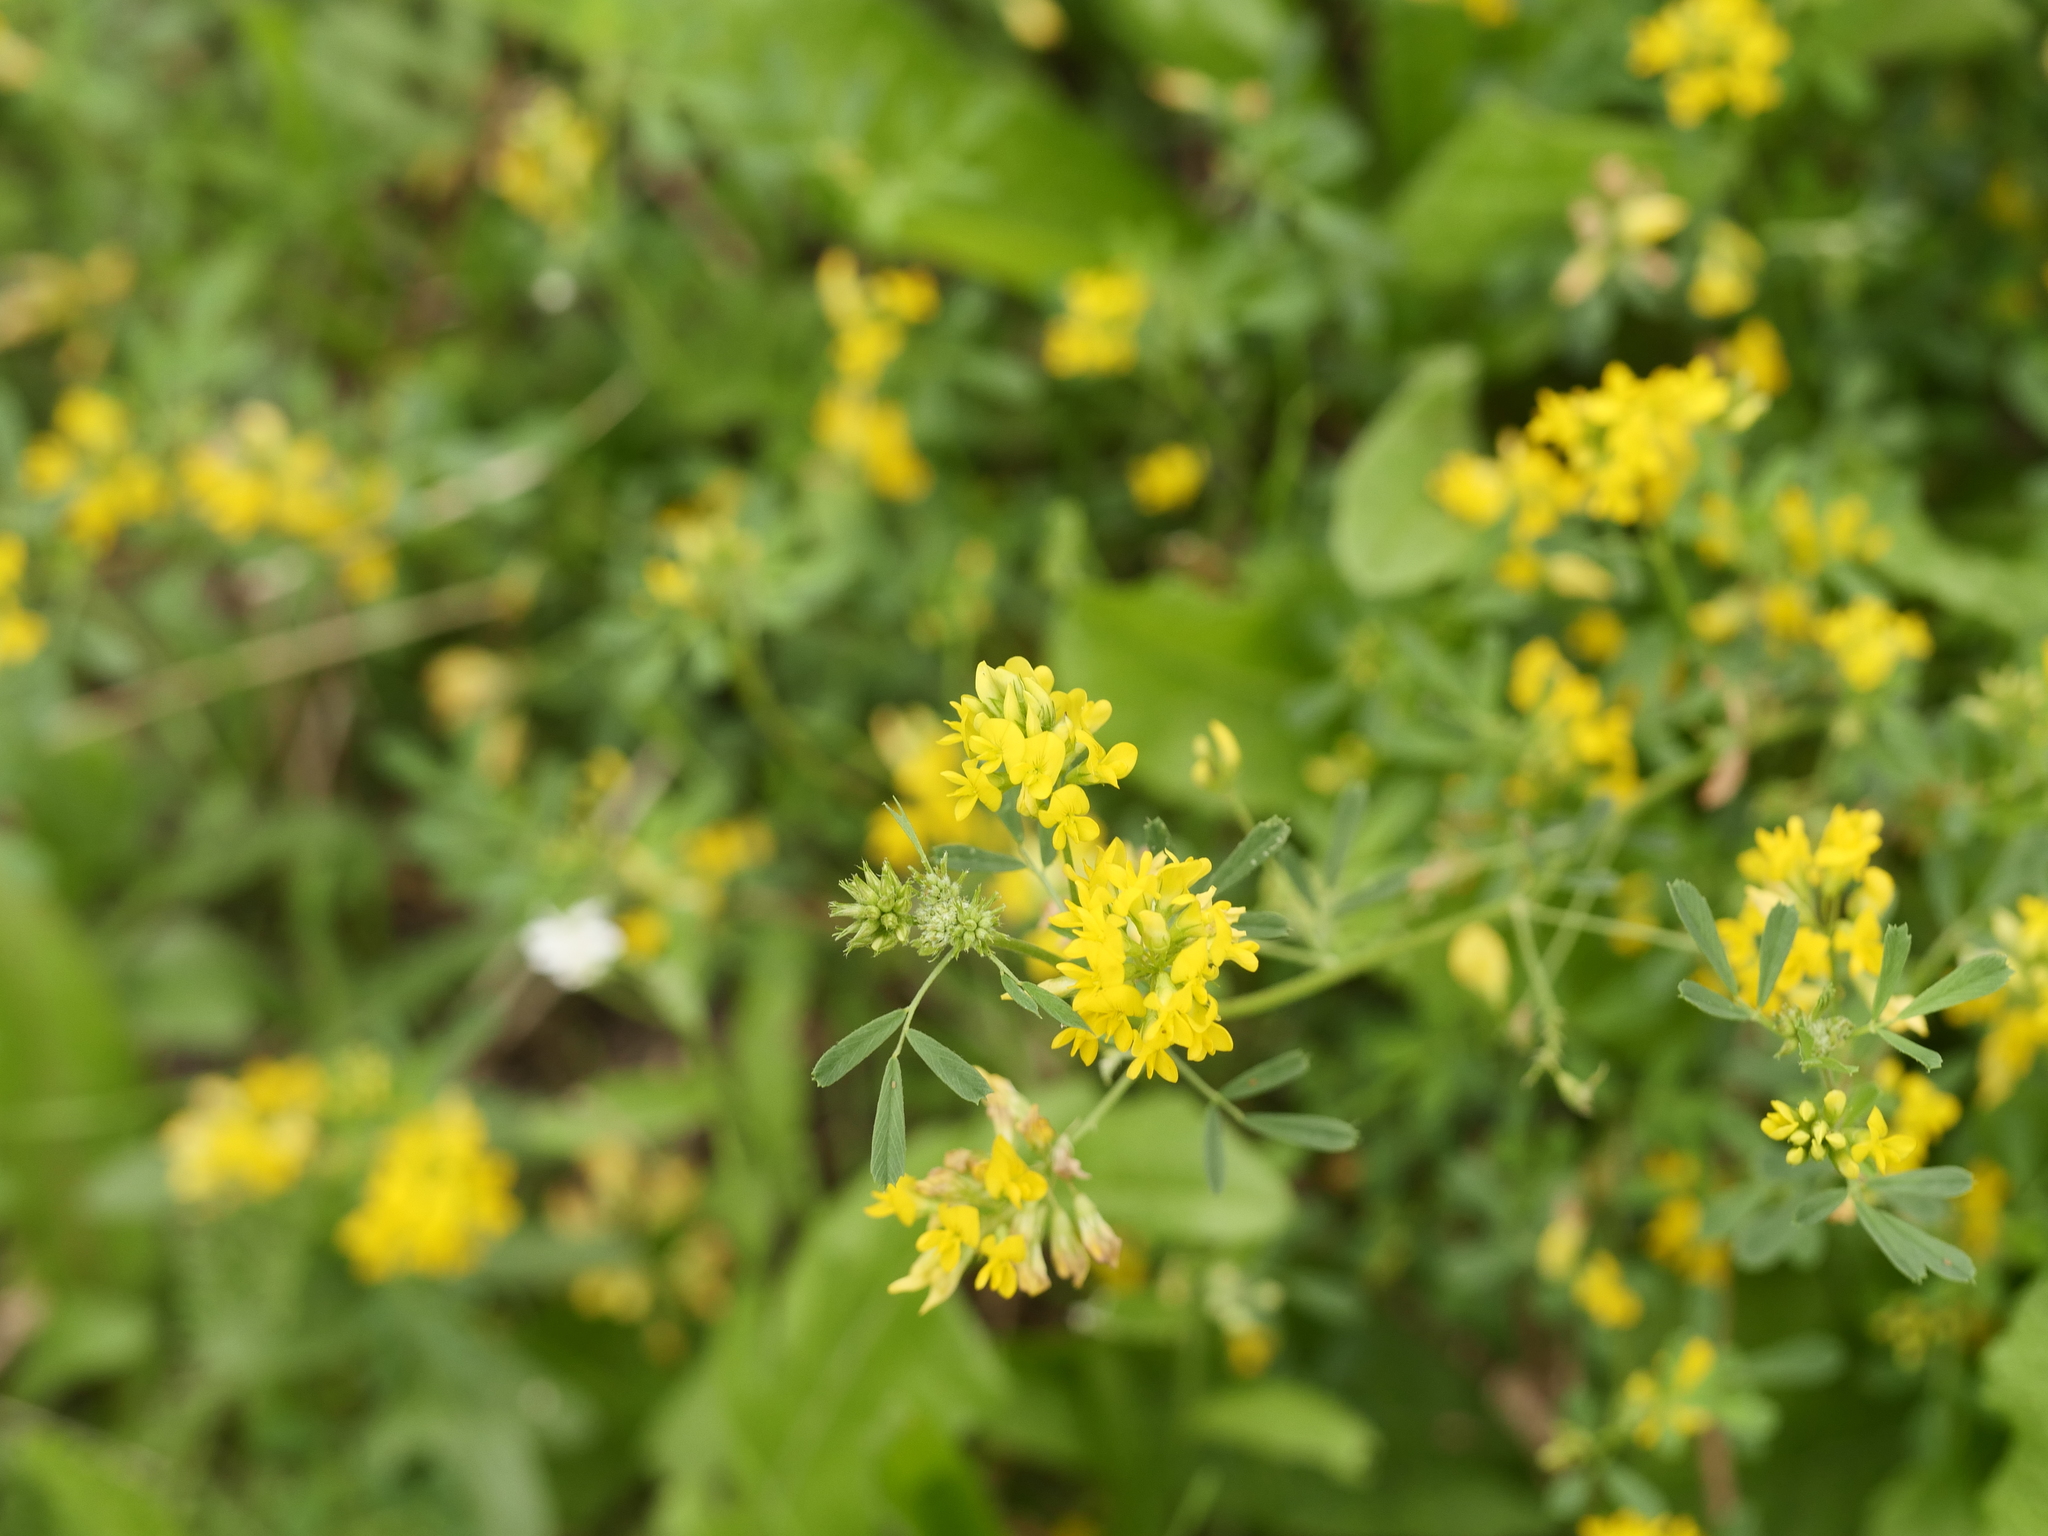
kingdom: Plantae
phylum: Tracheophyta
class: Magnoliopsida
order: Fabales
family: Fabaceae
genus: Medicago
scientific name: Medicago falcata
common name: Sickle medick
